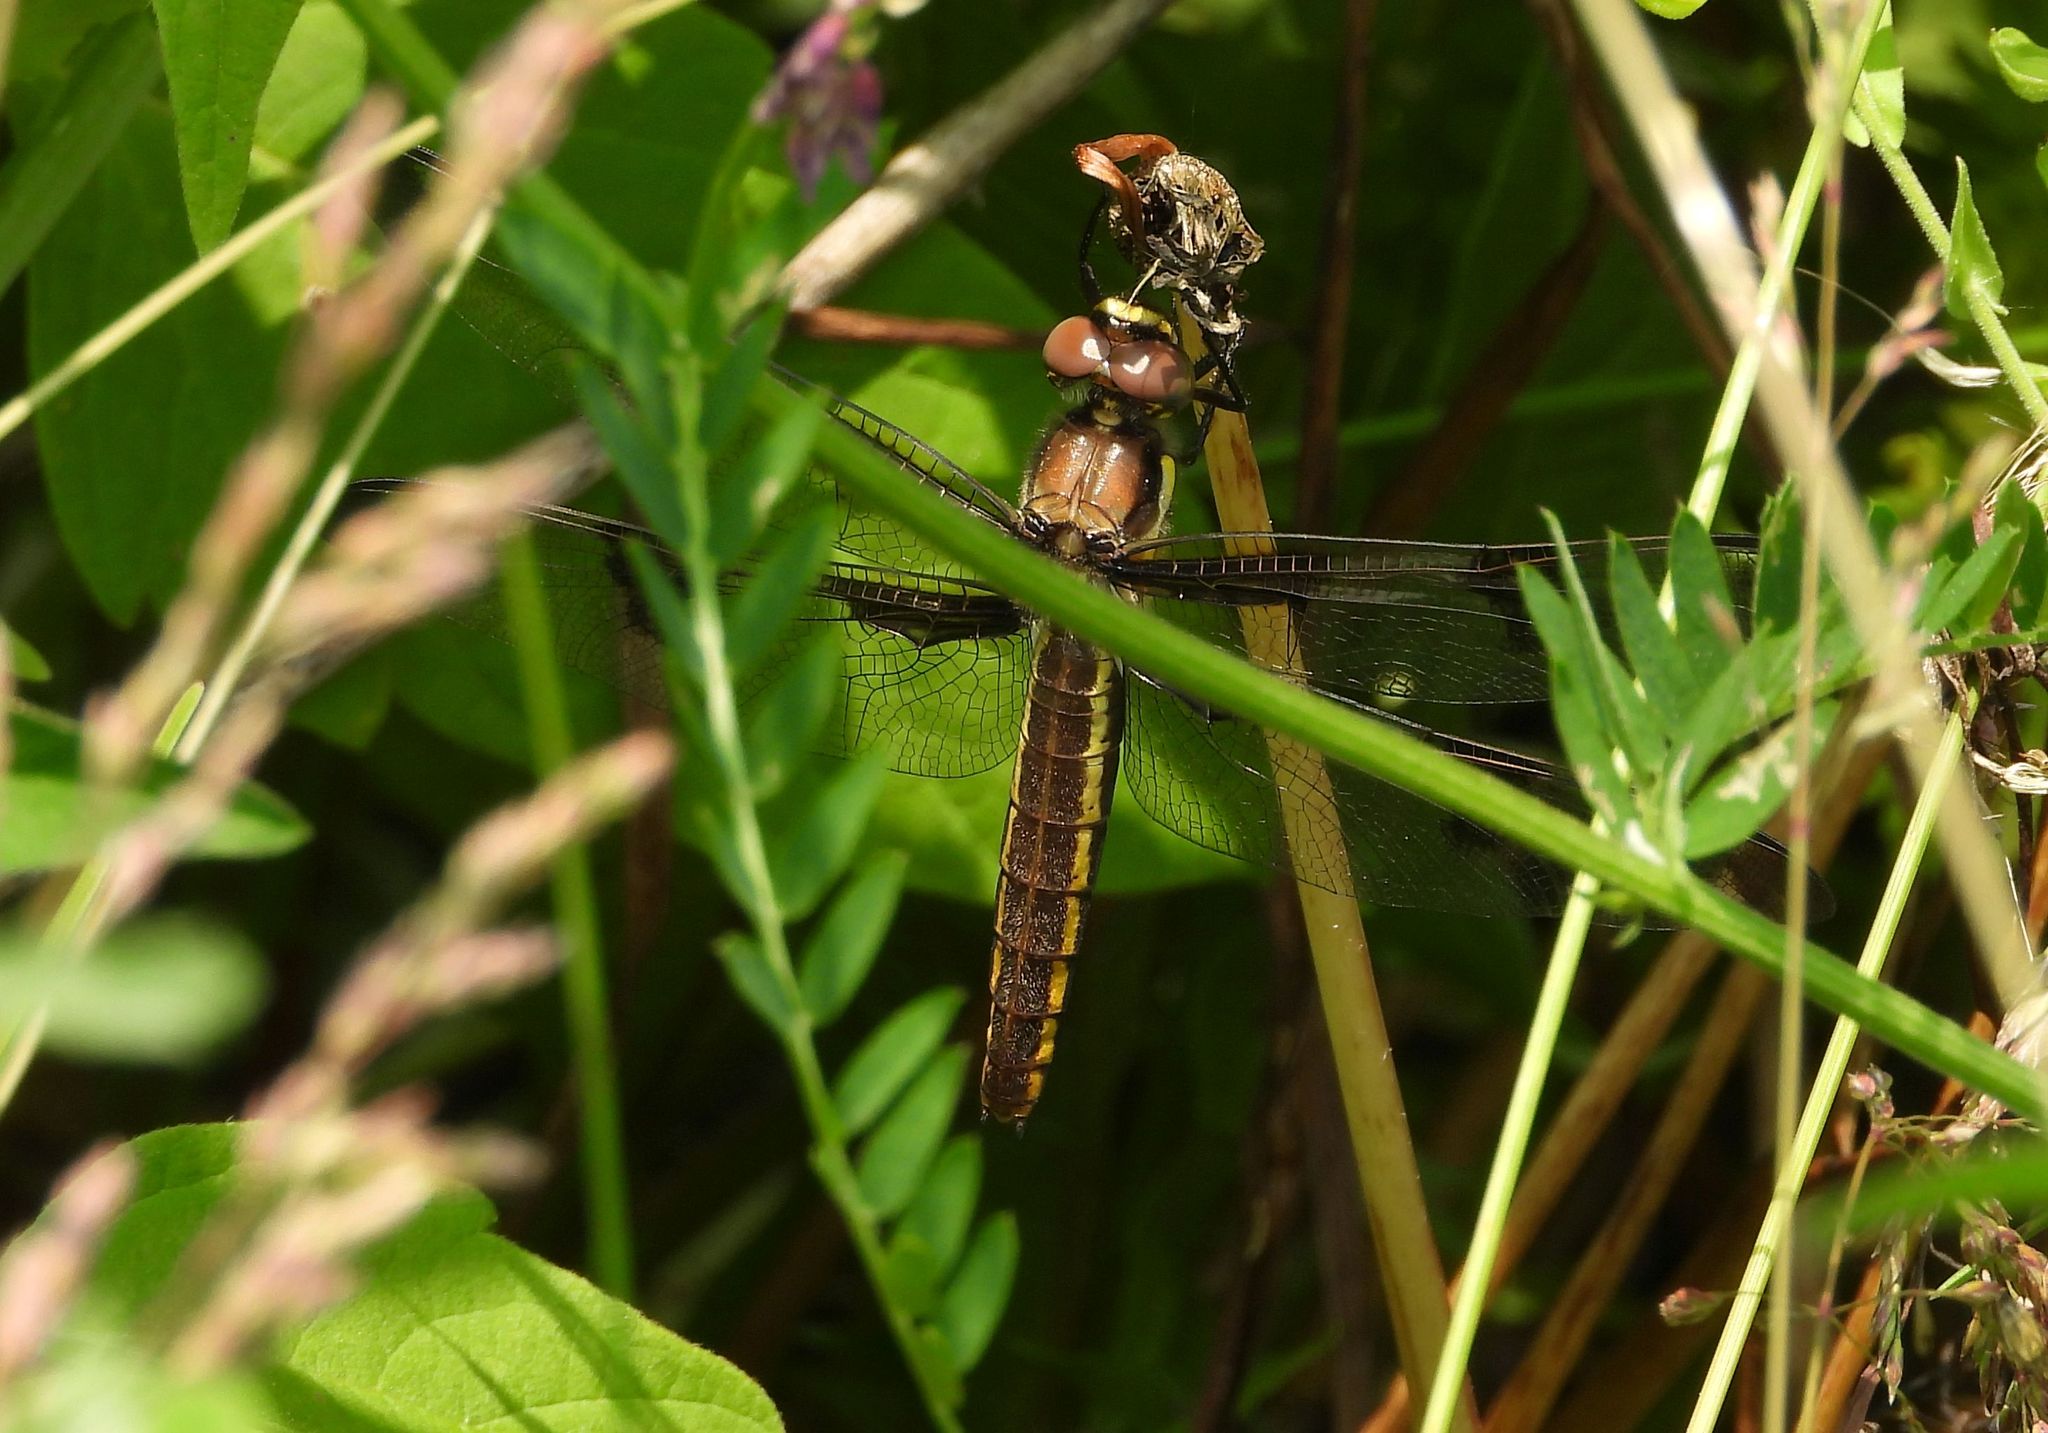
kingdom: Animalia
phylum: Arthropoda
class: Insecta
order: Odonata
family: Libellulidae
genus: Libellula
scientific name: Libellula pulchella
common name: Twelve-spotted skimmer
